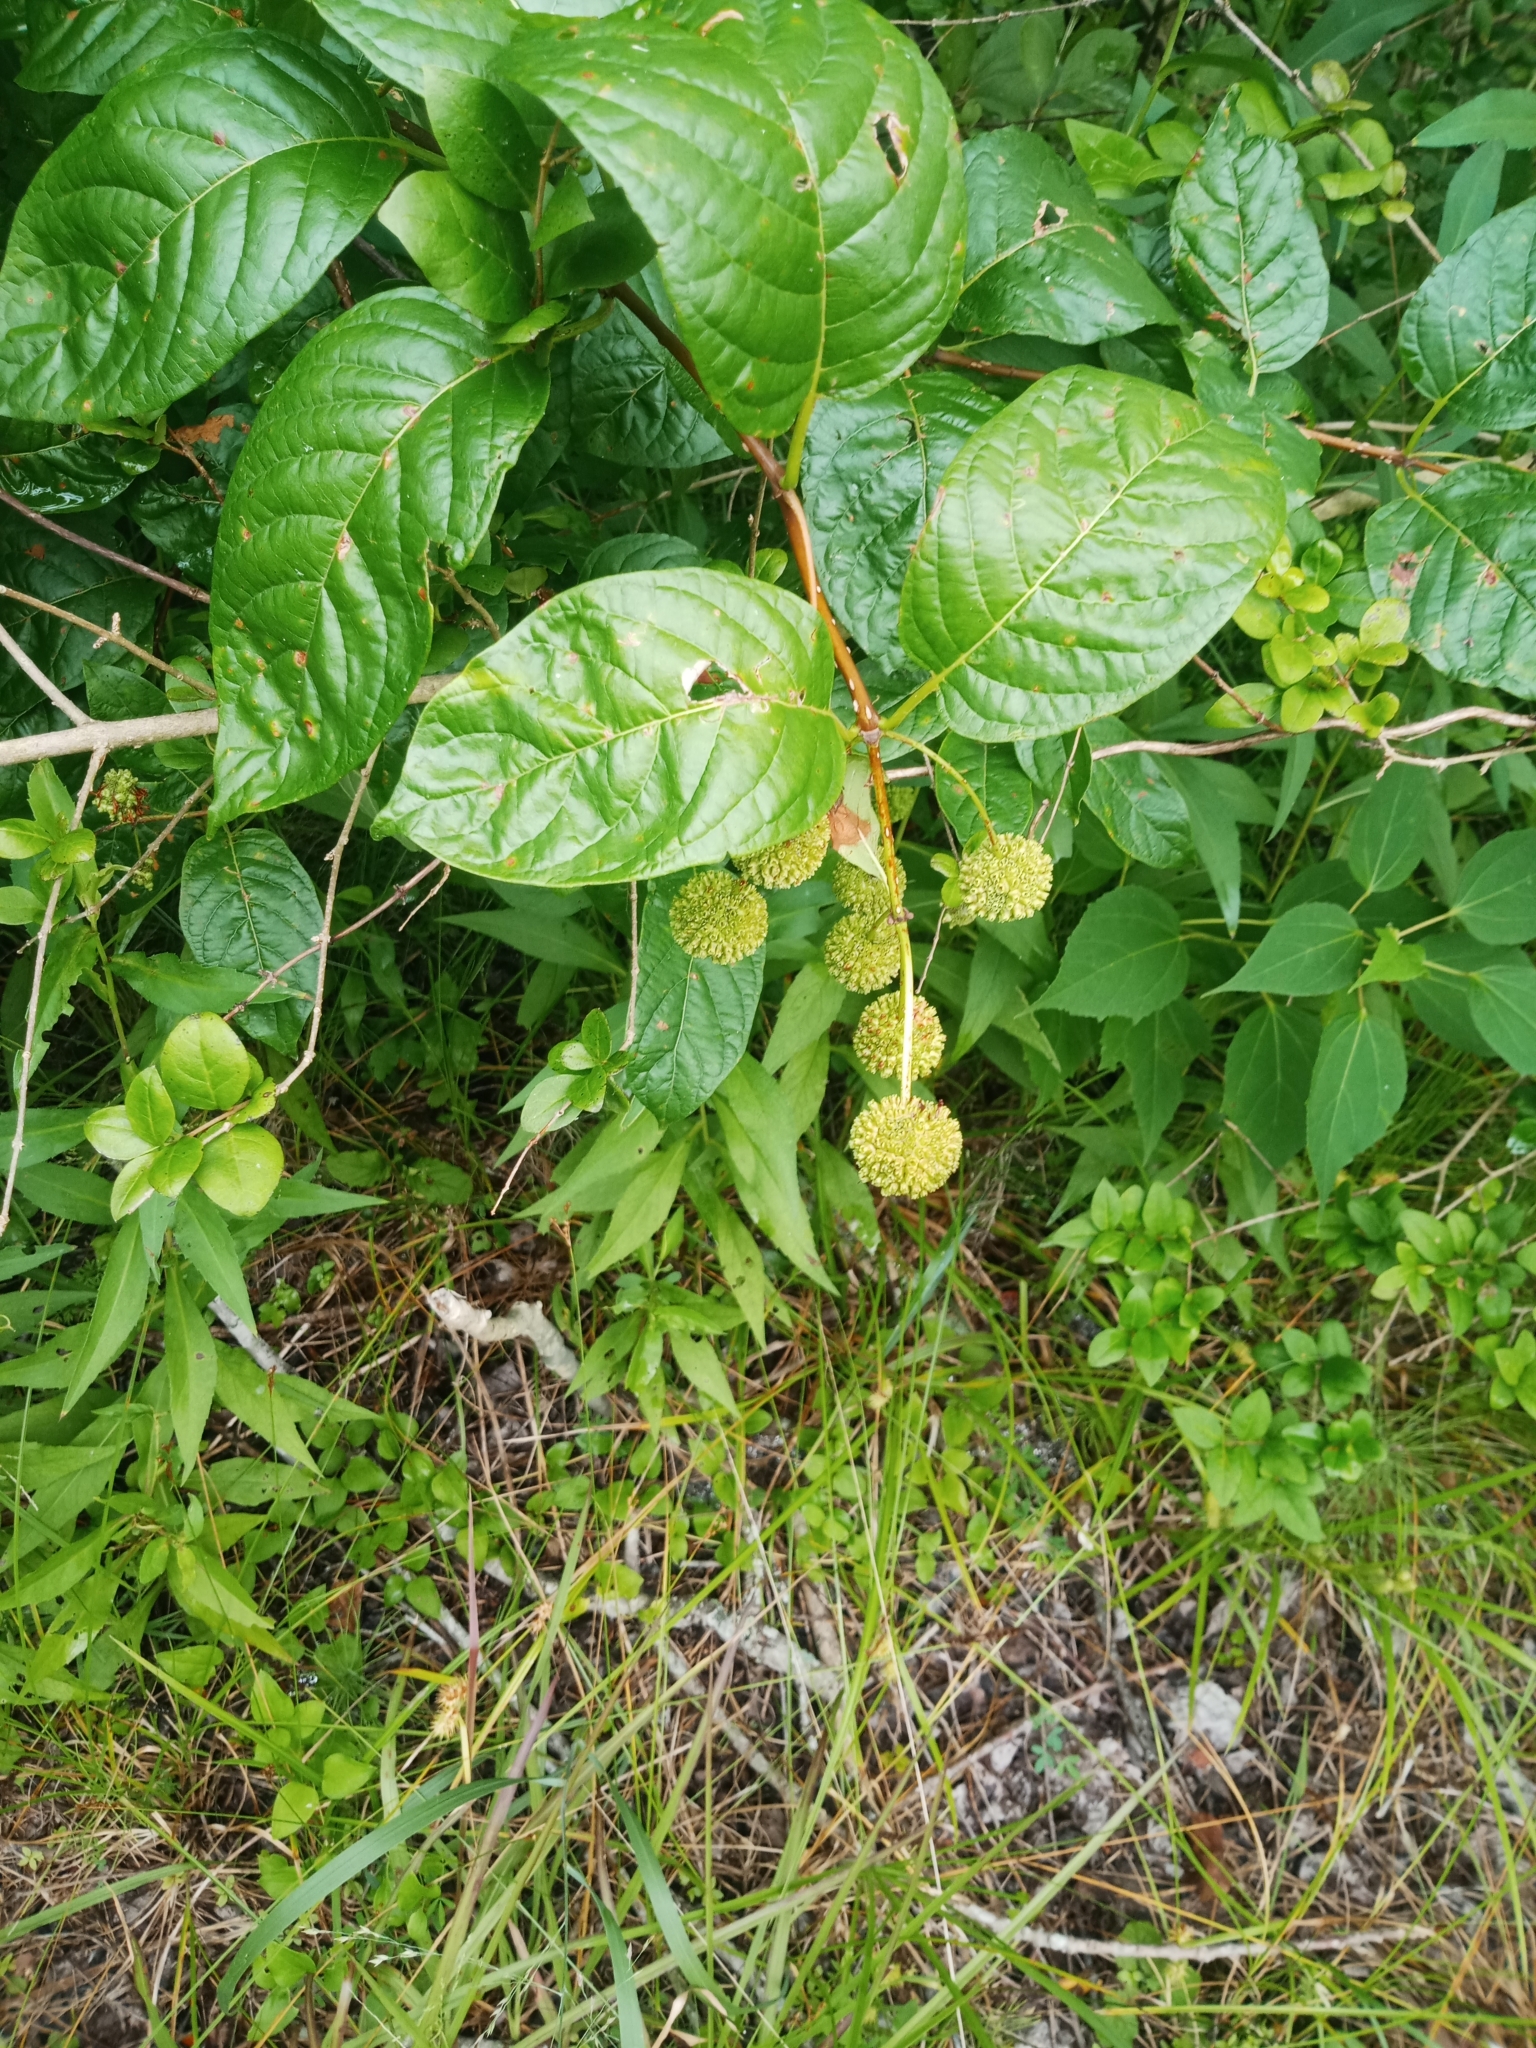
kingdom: Plantae
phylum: Tracheophyta
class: Magnoliopsida
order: Gentianales
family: Rubiaceae
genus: Cephalanthus
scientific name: Cephalanthus occidentalis
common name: Button-willow
